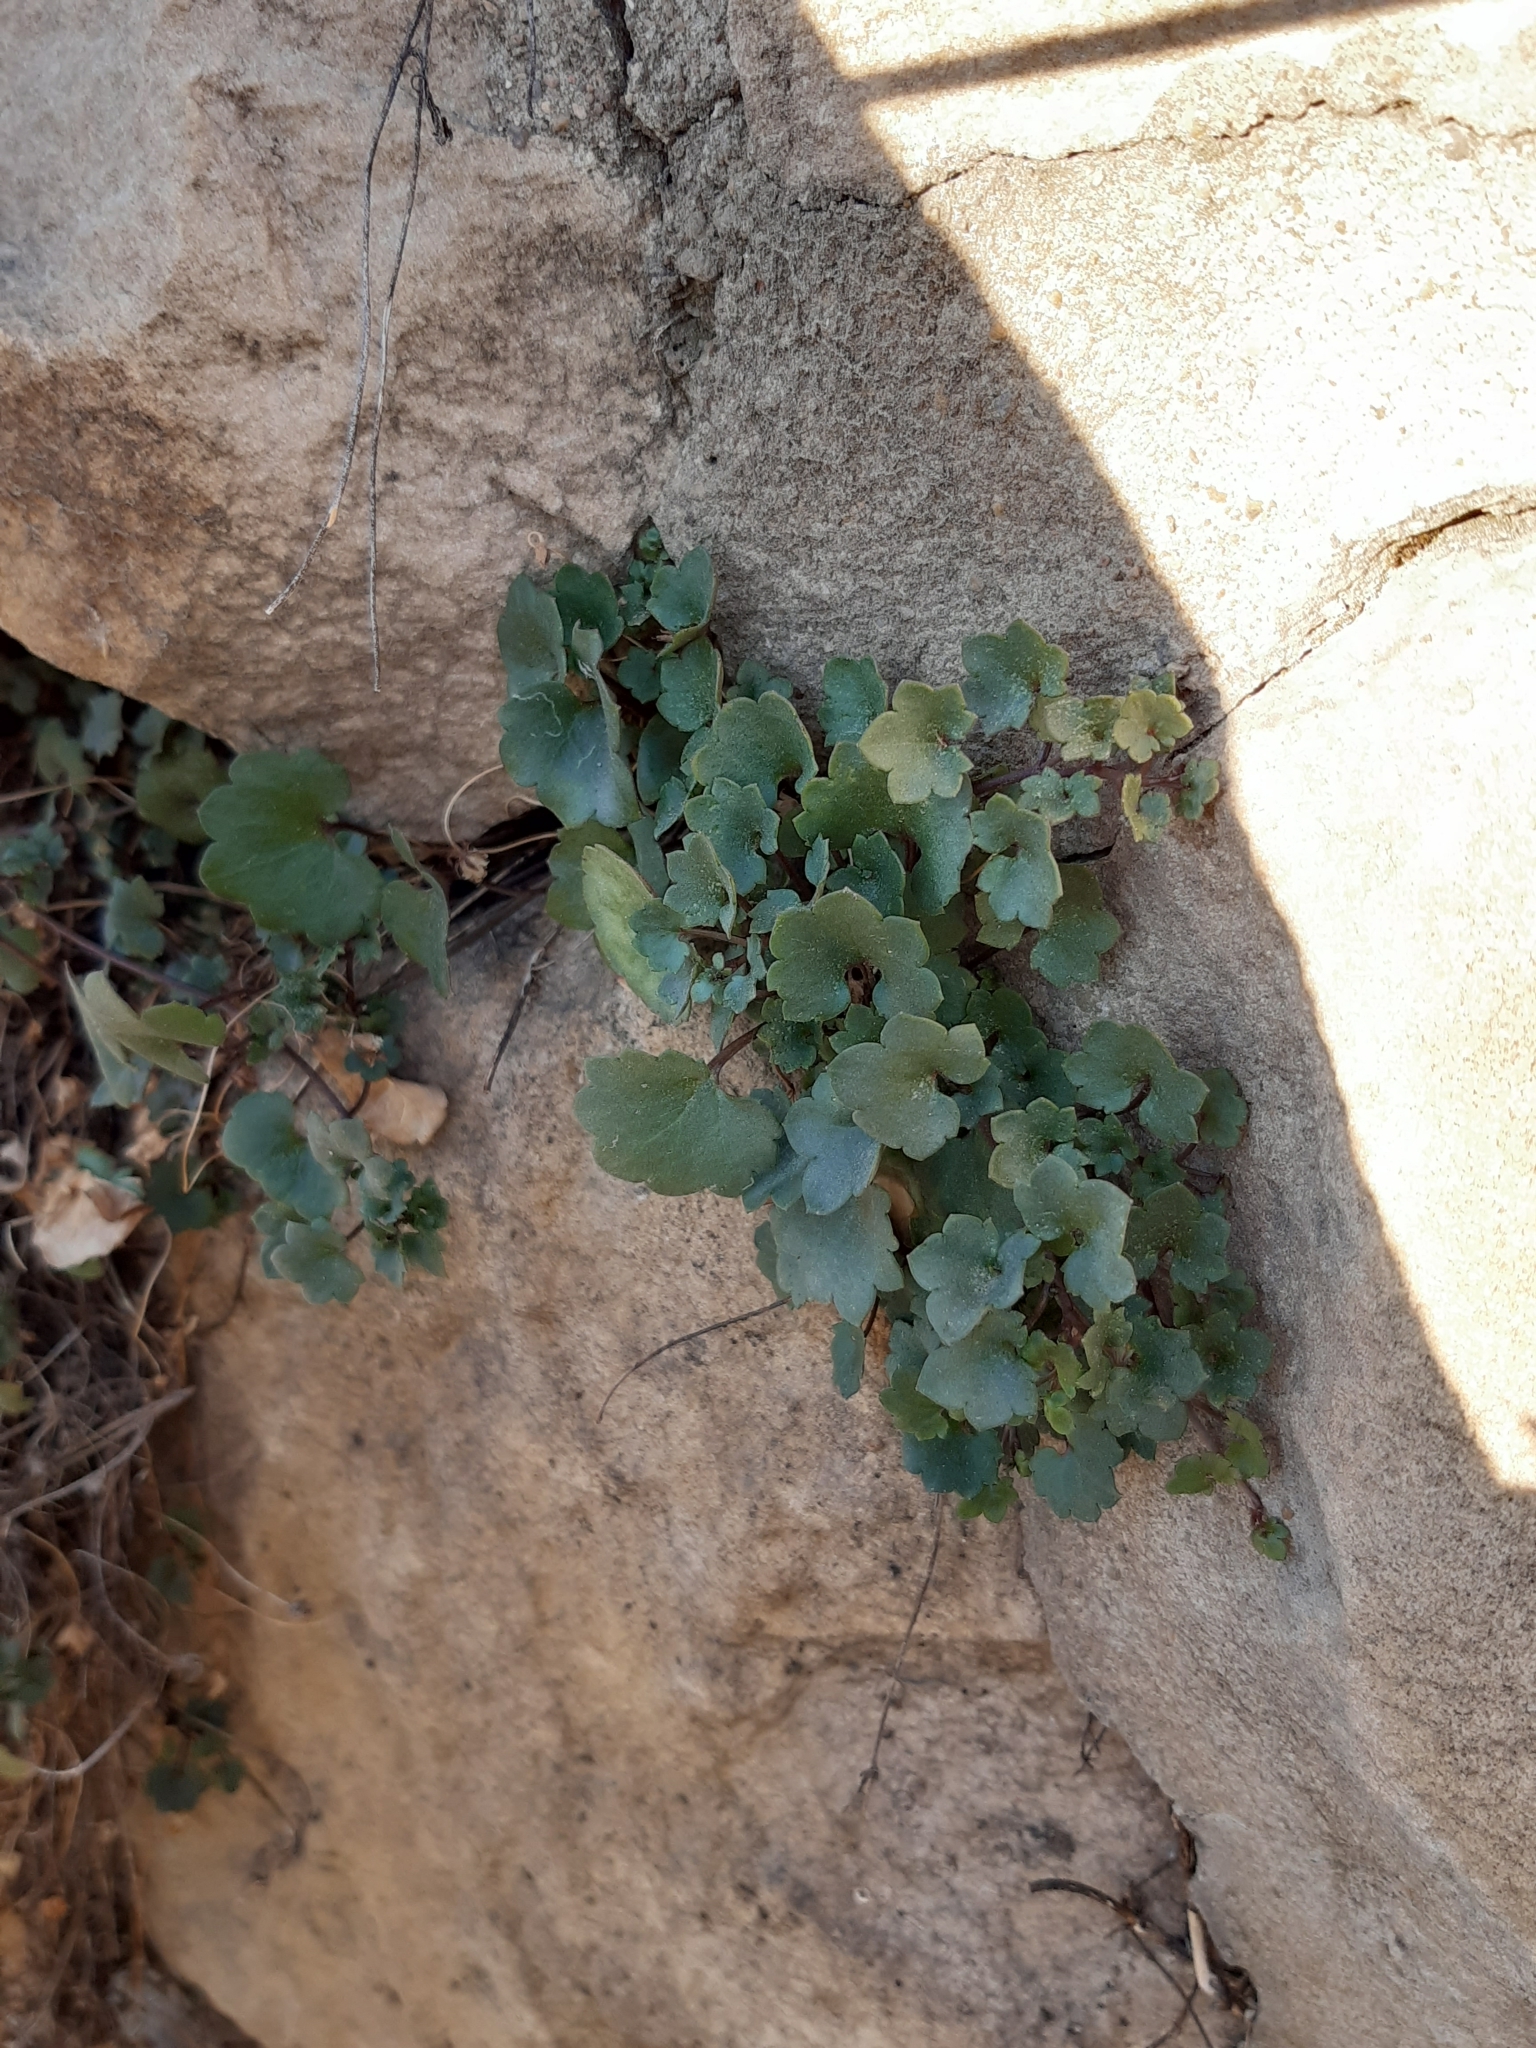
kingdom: Plantae
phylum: Tracheophyta
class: Magnoliopsida
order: Lamiales
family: Plantaginaceae
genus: Cymbalaria
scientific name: Cymbalaria muralis
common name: Ivy-leaved toadflax
